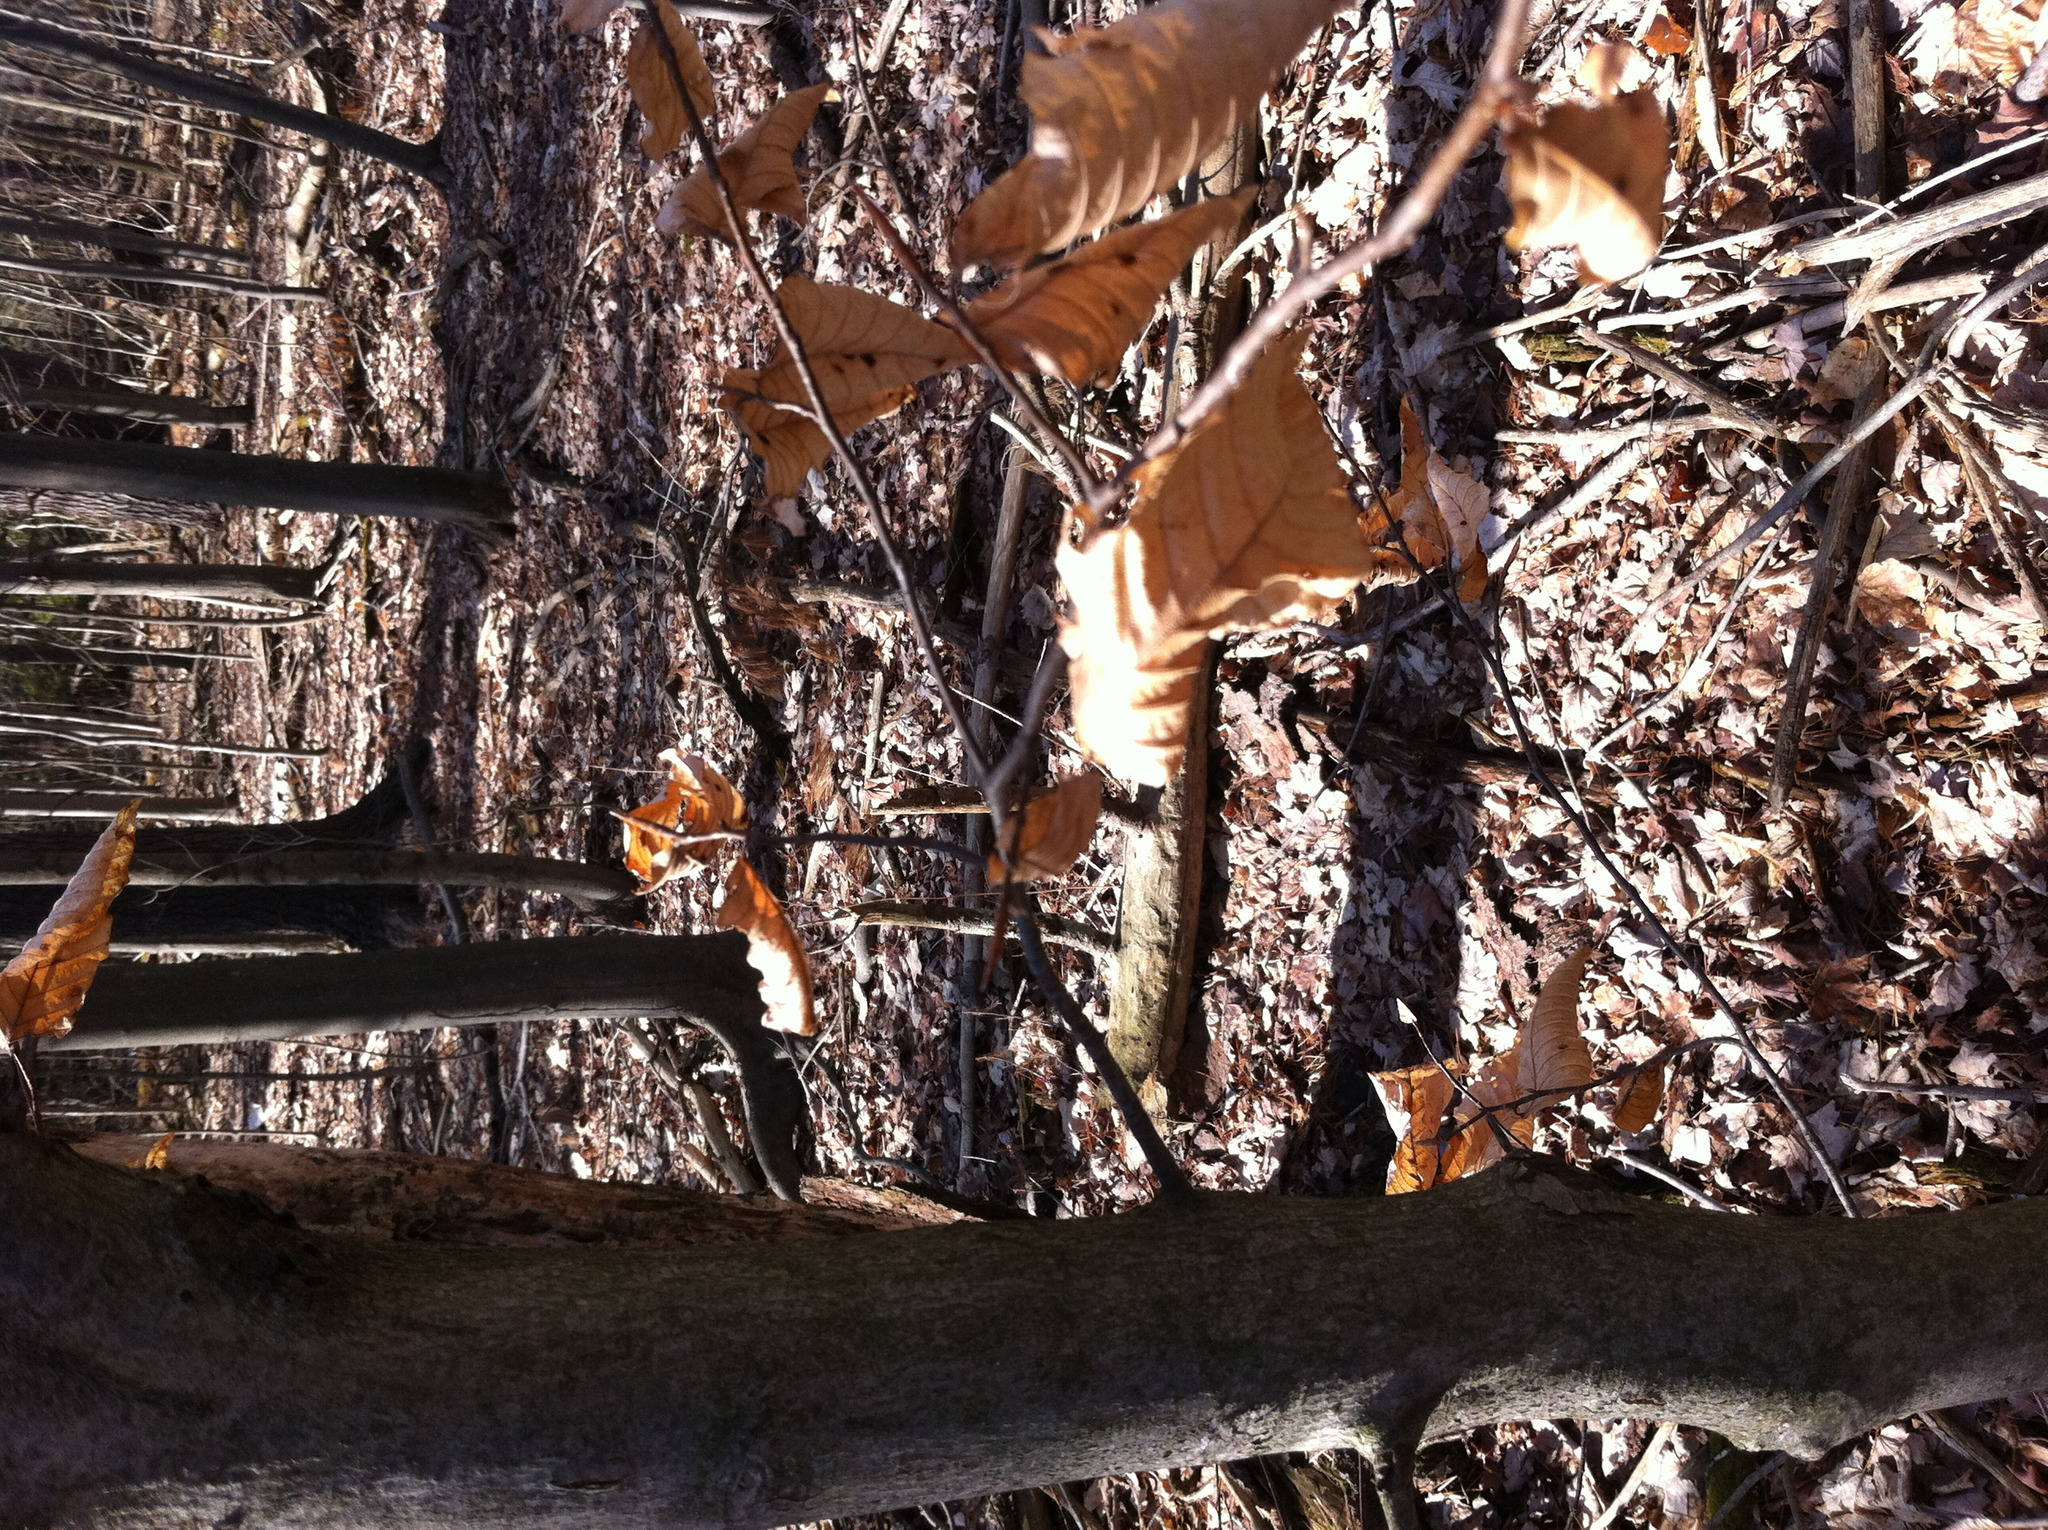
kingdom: Plantae
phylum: Tracheophyta
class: Magnoliopsida
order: Fagales
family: Fagaceae
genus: Fagus
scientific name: Fagus grandifolia
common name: American beech
